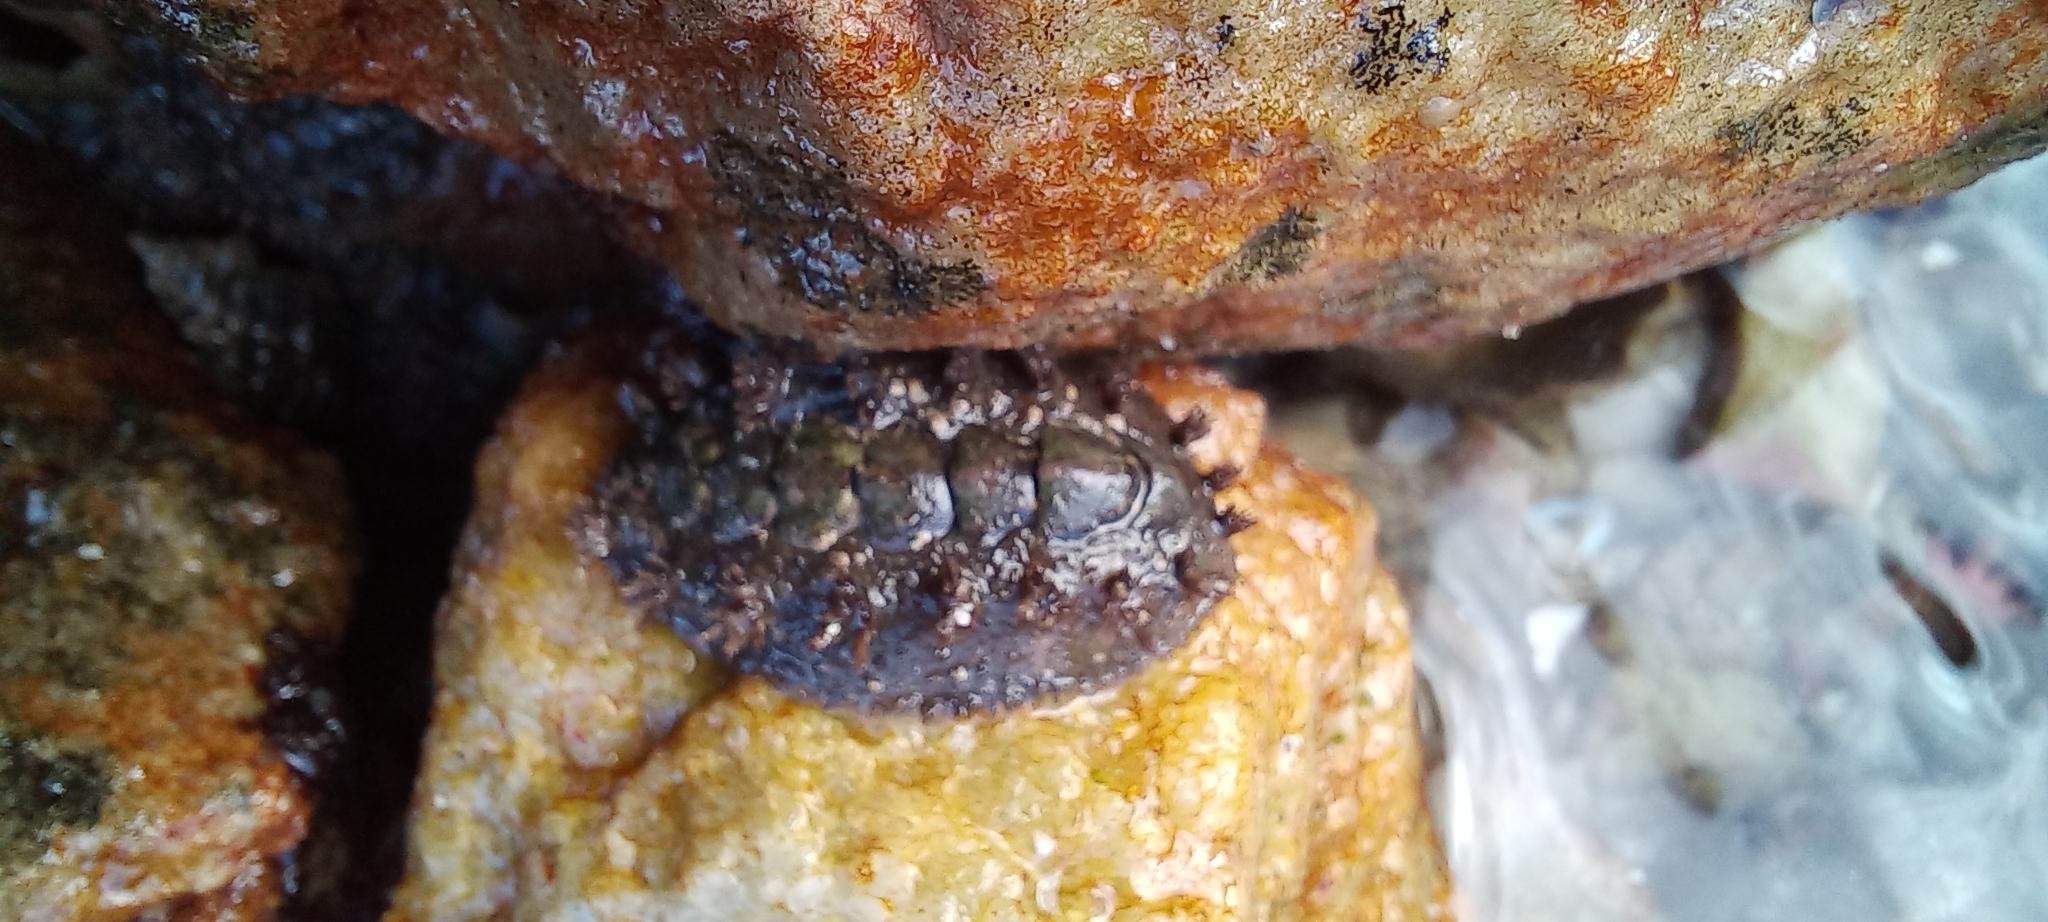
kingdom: Animalia
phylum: Mollusca
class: Polyplacophora
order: Chitonida
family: Acanthochitonidae
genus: Acanthochitona
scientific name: Acanthochitona garnoti
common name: Spiny chiton
